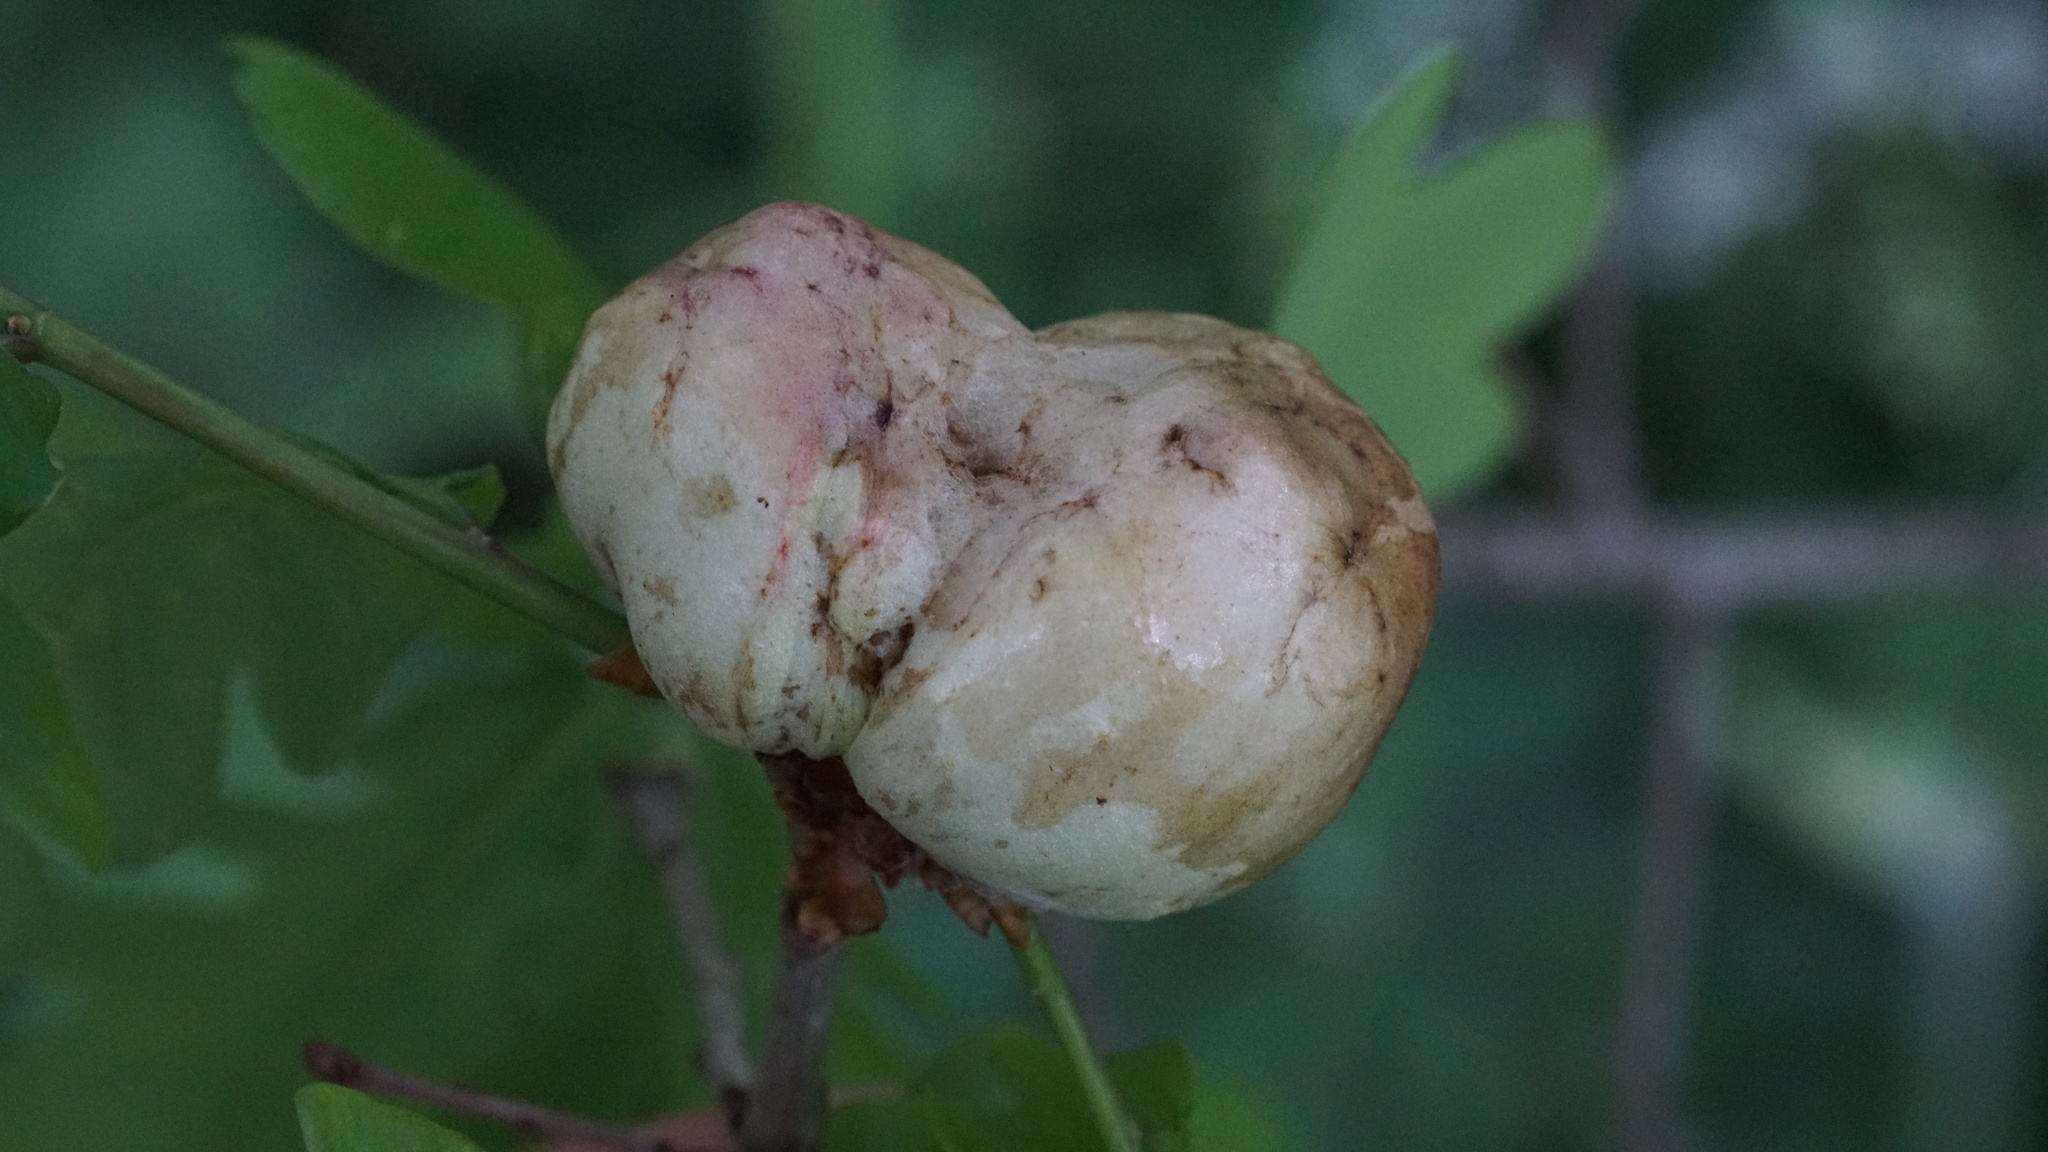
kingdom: Animalia
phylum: Arthropoda
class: Insecta
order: Hymenoptera
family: Cynipidae
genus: Biorhiza
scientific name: Biorhiza pallida
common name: Oak apple
